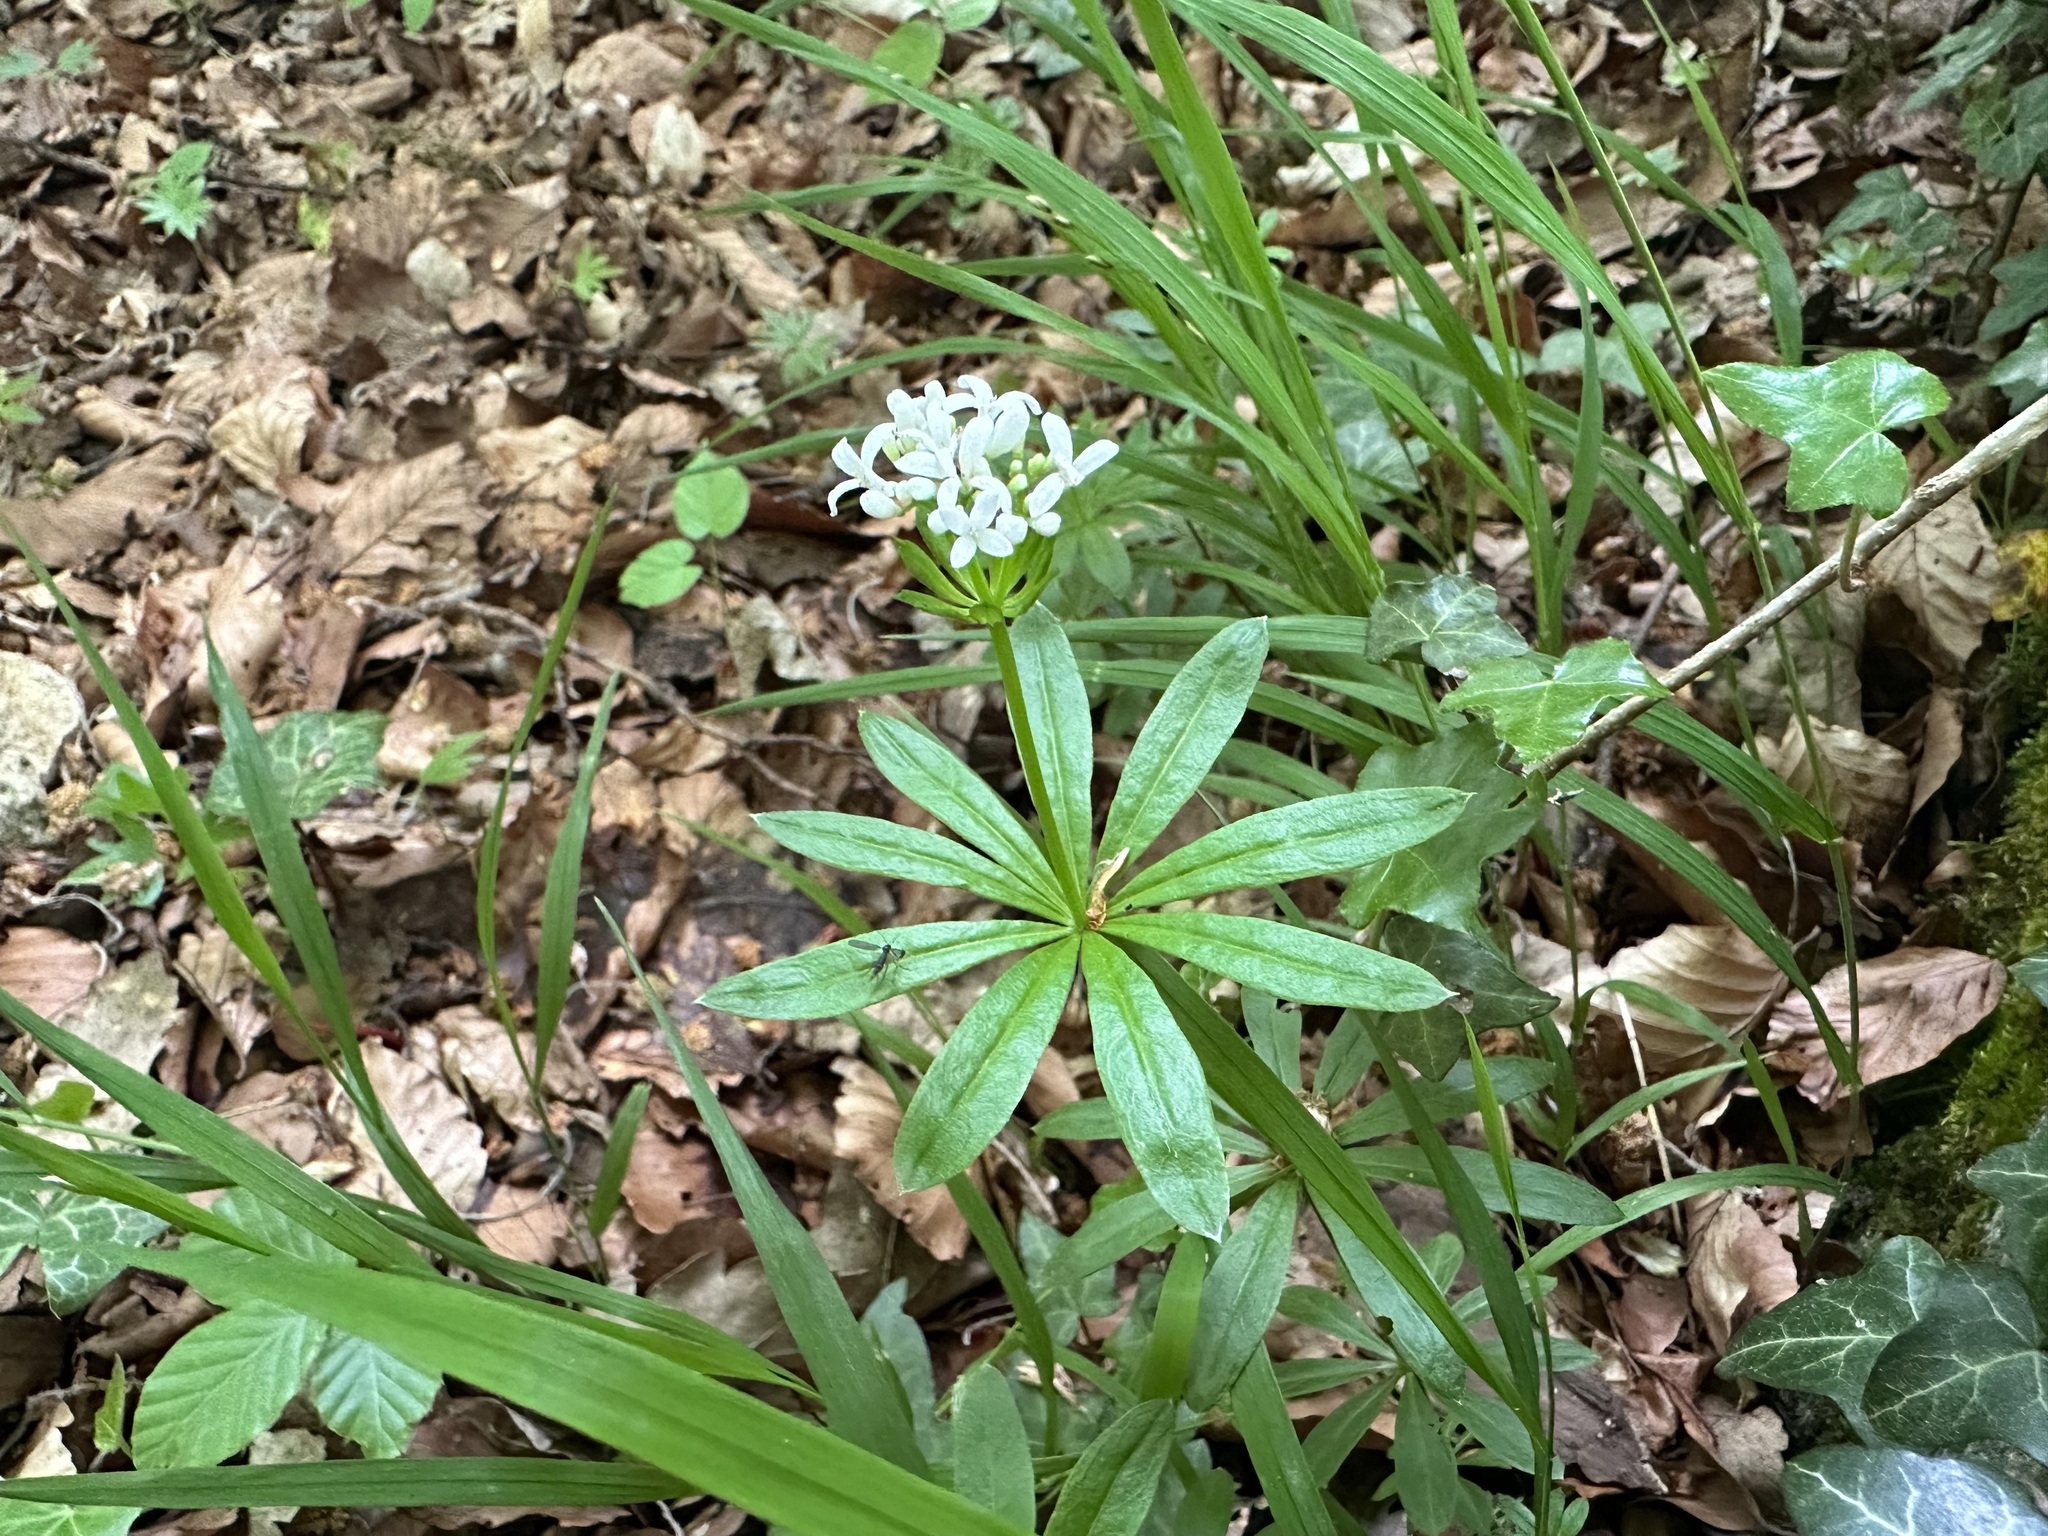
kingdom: Plantae
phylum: Tracheophyta
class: Magnoliopsida
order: Gentianales
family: Rubiaceae
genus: Galium
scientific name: Galium odoratum
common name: Sweet woodruff
